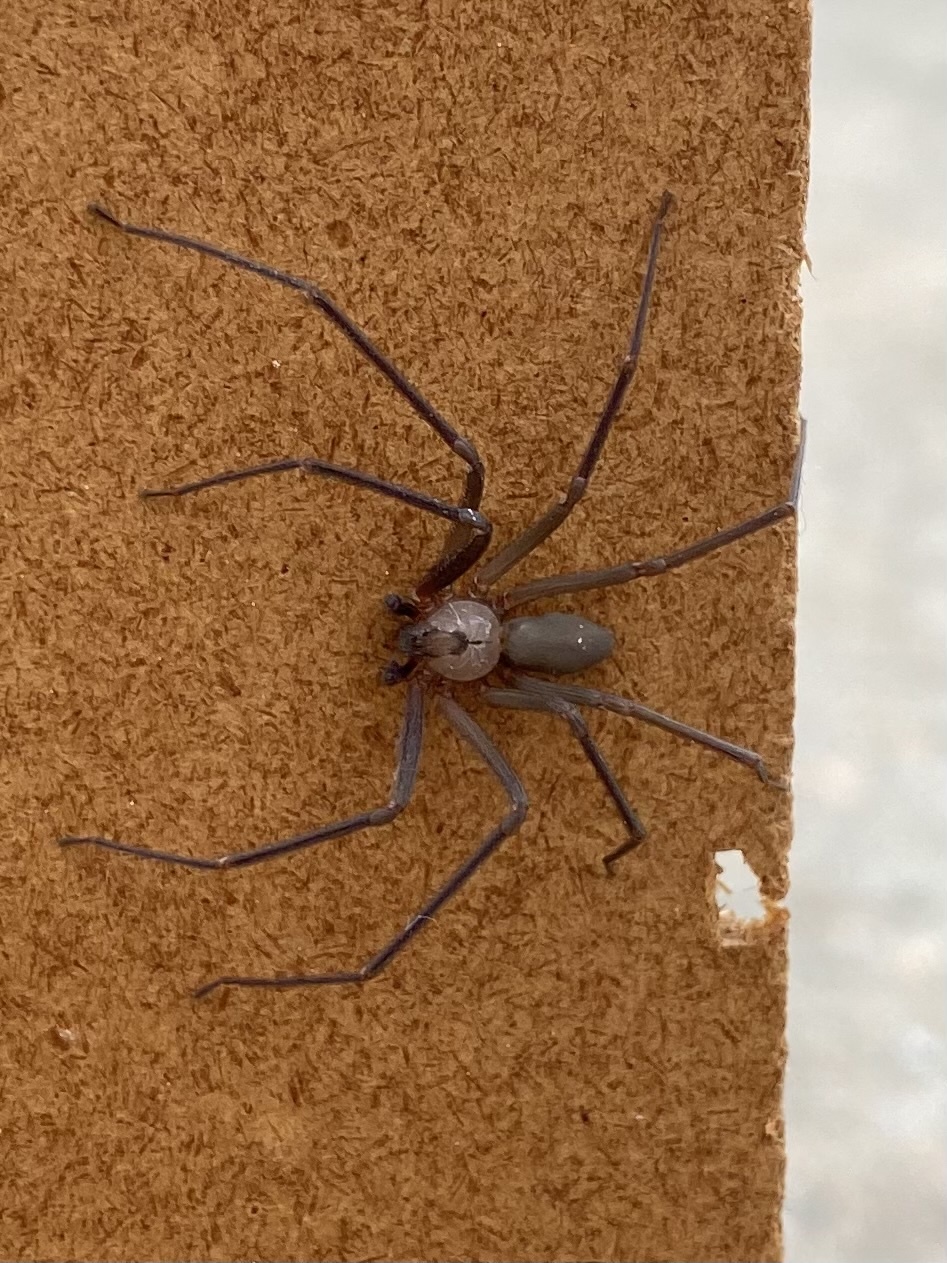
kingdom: Animalia
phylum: Arthropoda
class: Arachnida
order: Araneae
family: Sicariidae
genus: Loxosceles
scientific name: Loxosceles reclusa
